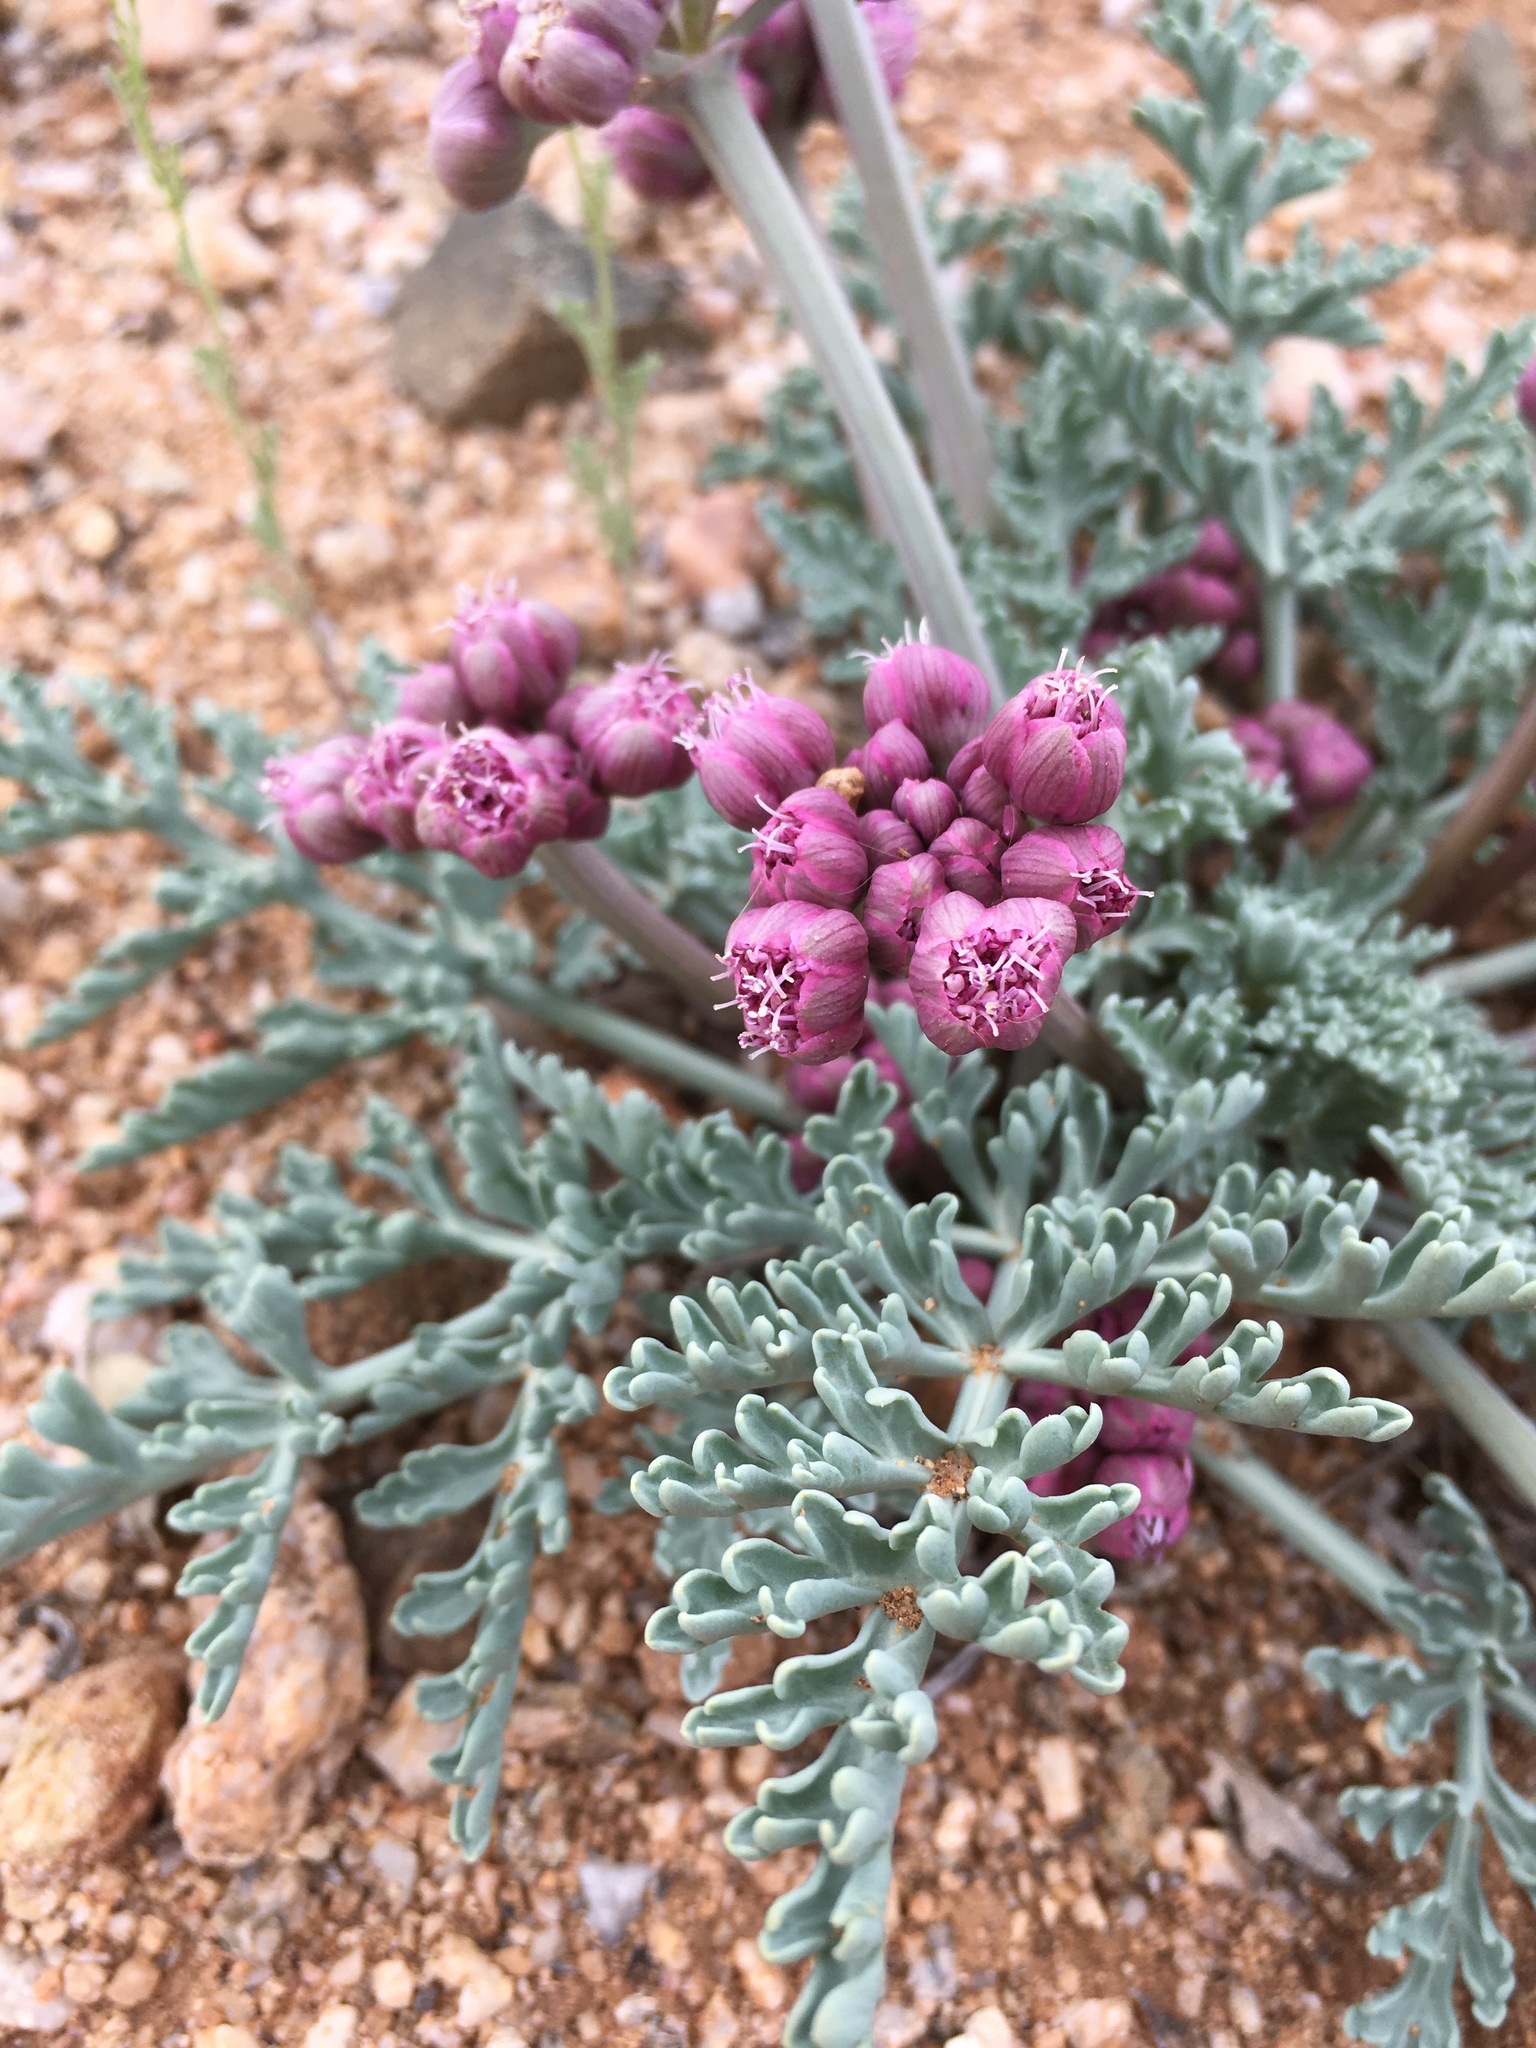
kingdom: Plantae
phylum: Tracheophyta
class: Magnoliopsida
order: Apiales
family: Apiaceae
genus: Vesper
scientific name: Vesper multinervatus
